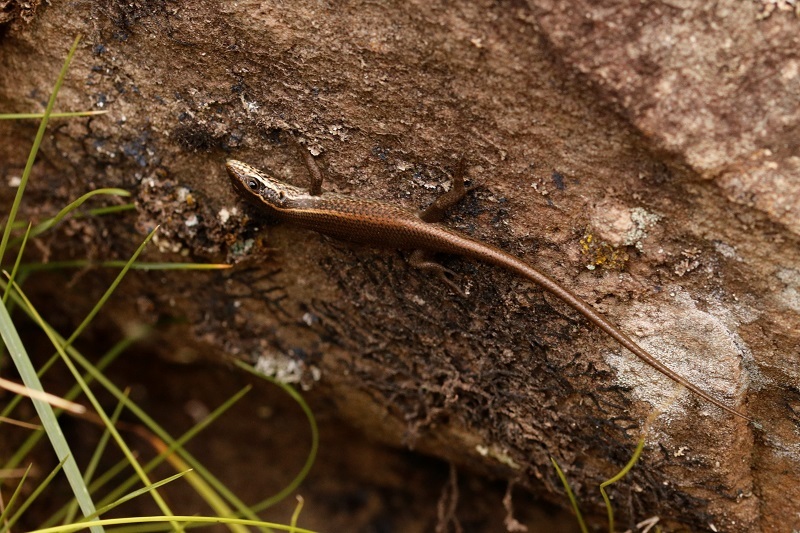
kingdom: Animalia
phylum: Chordata
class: Squamata
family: Scincidae
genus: Trachylepis
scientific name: Trachylepis punctatissima
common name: Montane speckled skink
